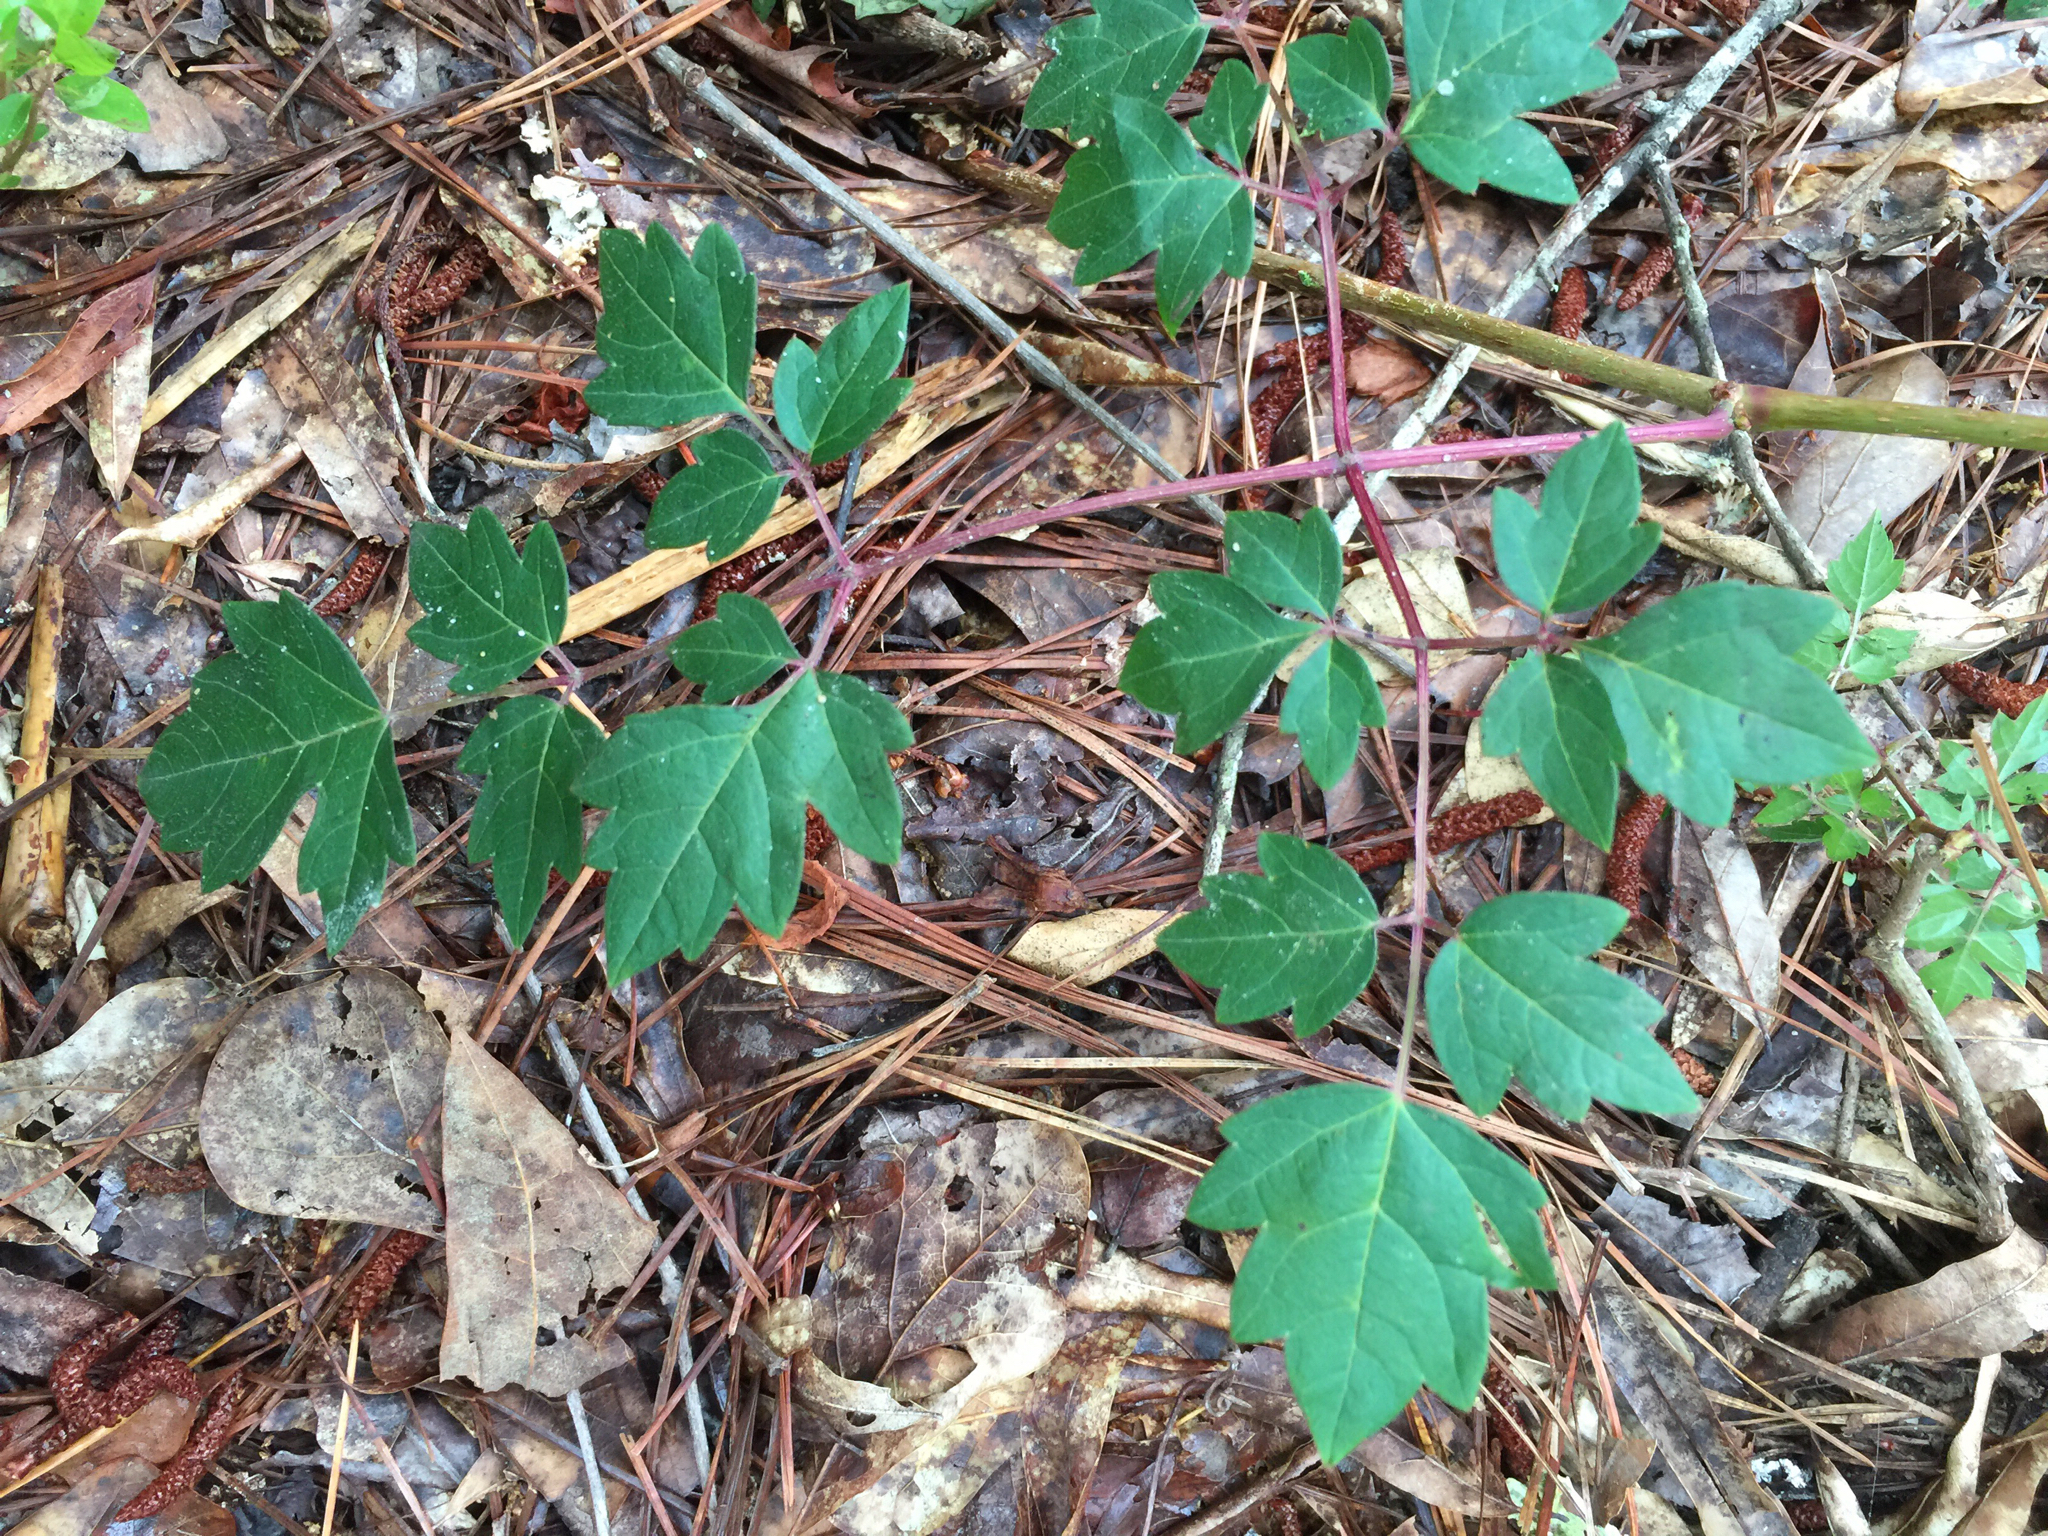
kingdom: Plantae
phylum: Tracheophyta
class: Magnoliopsida
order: Vitales
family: Vitaceae
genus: Nekemias
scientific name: Nekemias arborea
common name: Peppervine
